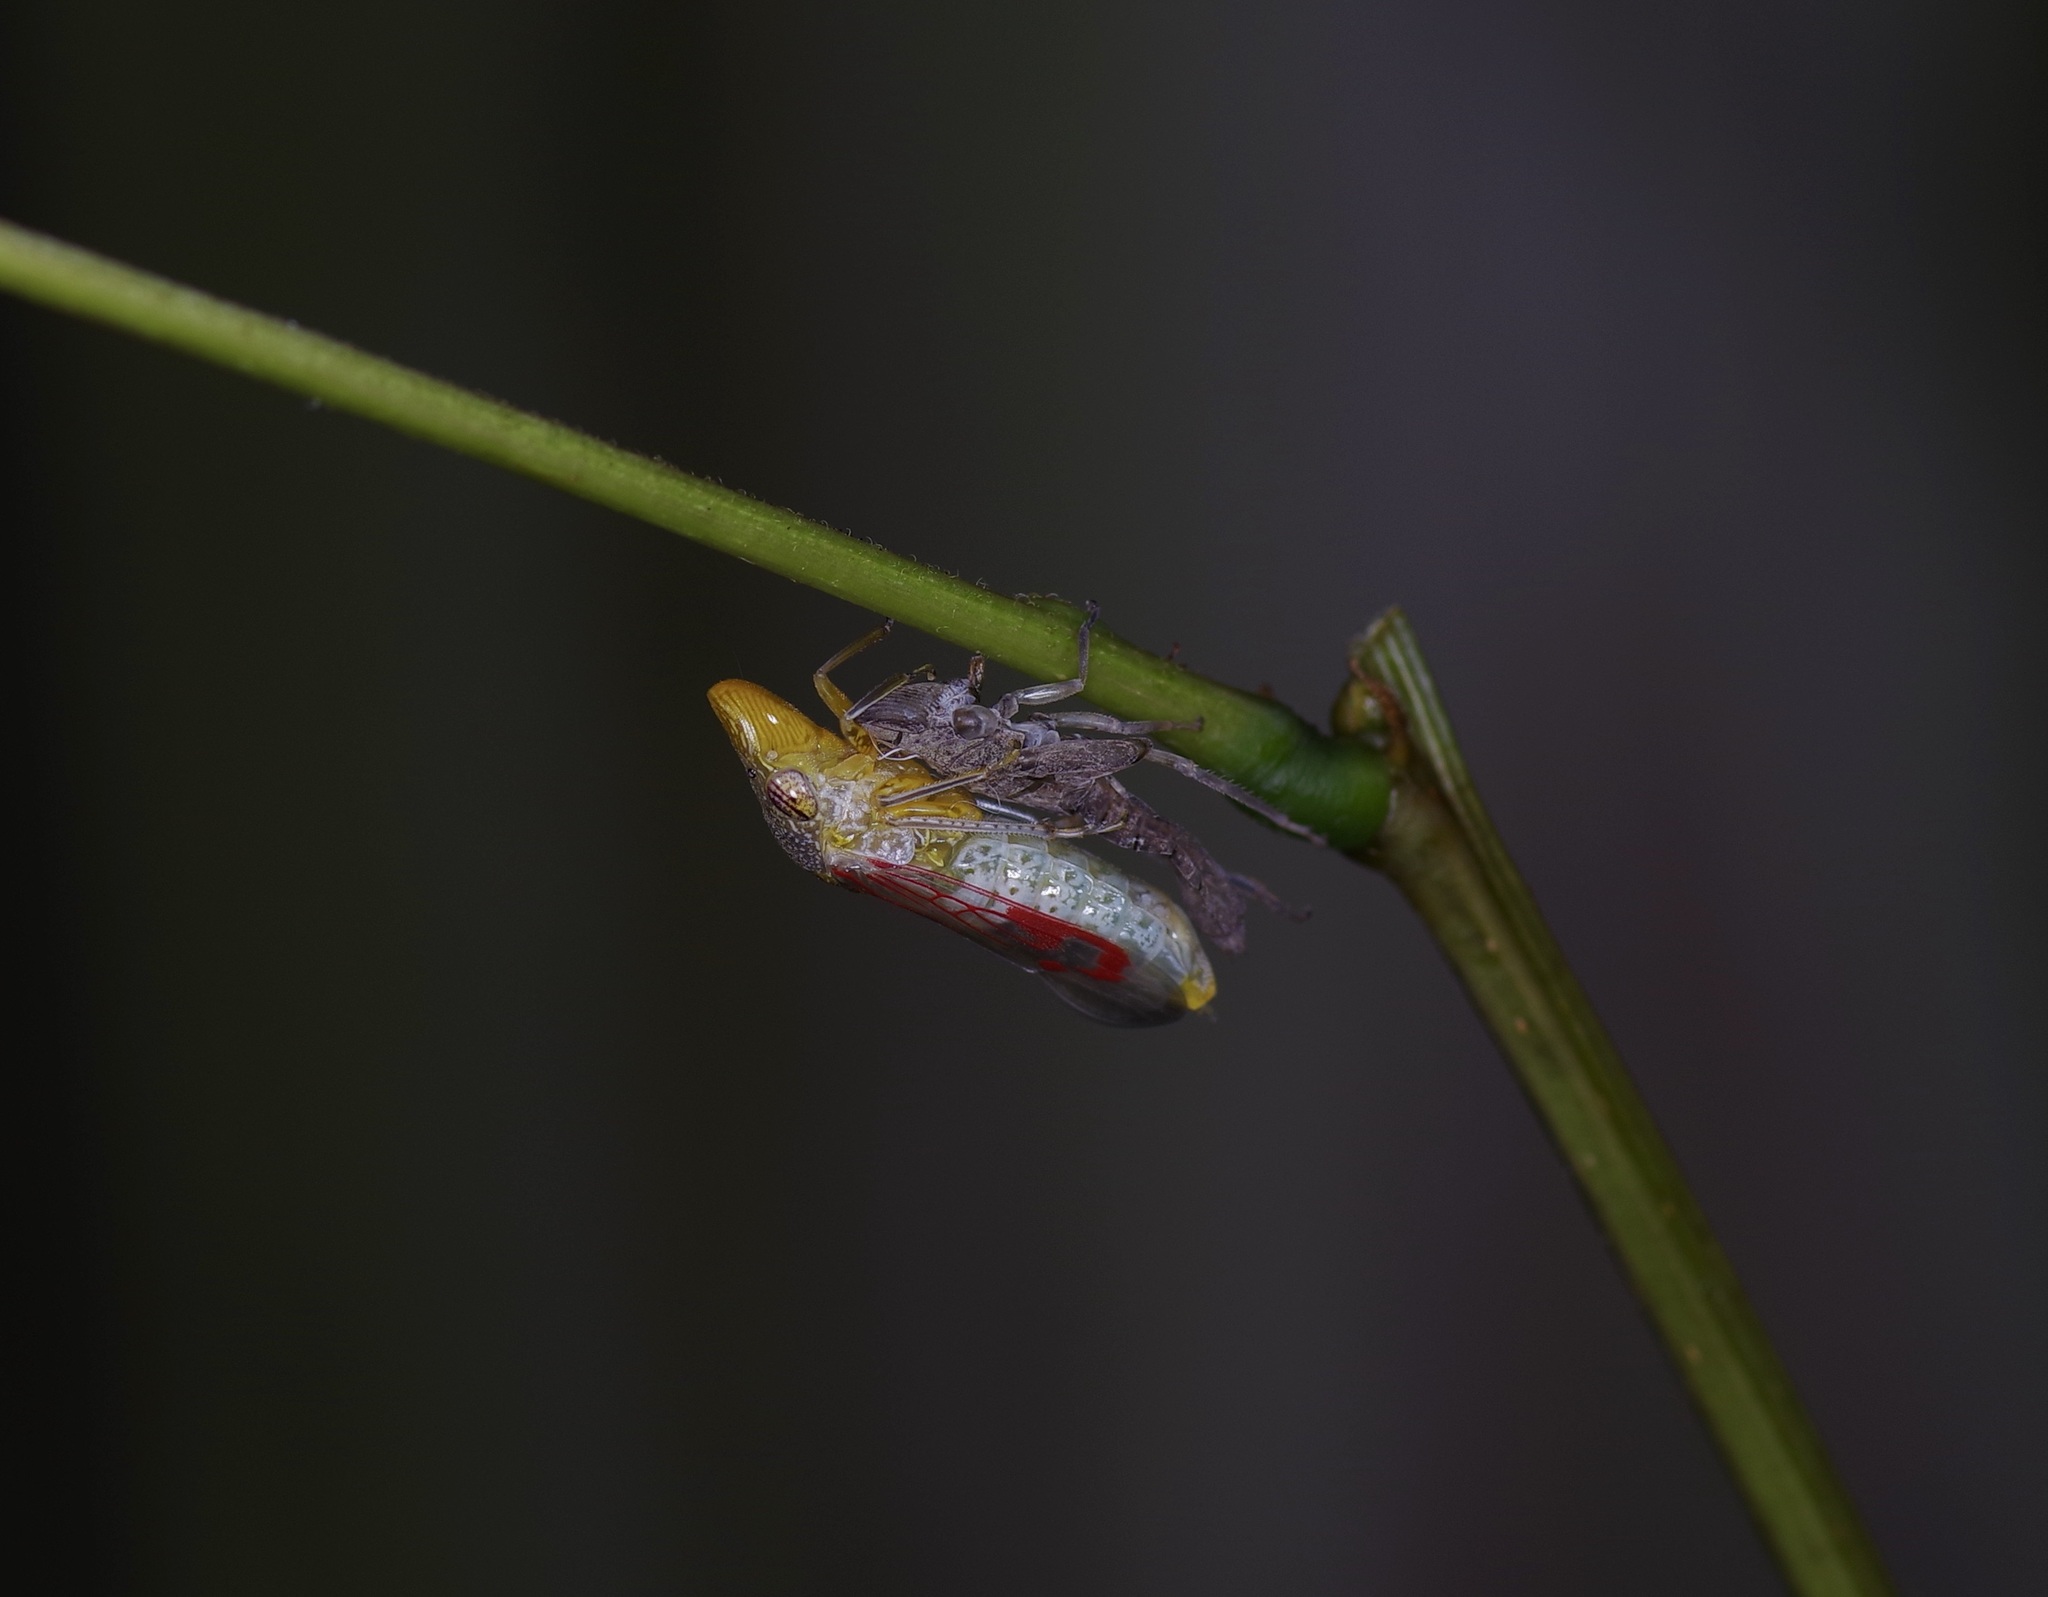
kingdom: Animalia
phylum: Arthropoda
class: Insecta
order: Hemiptera
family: Cicadellidae
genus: Homalodisca
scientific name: Homalodisca vitripennis
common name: Glassy-winged sharpshooter
